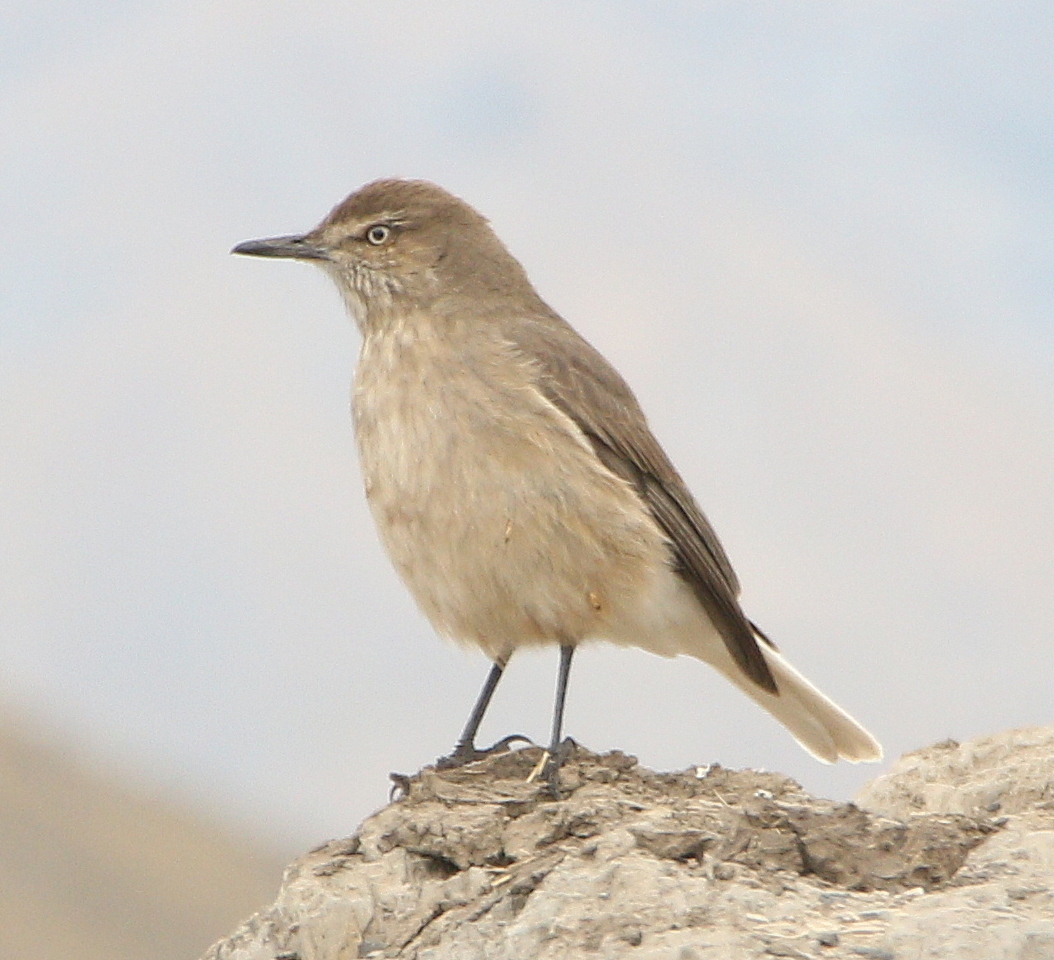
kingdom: Animalia
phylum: Chordata
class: Aves
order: Passeriformes
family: Tyrannidae
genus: Agriornis
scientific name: Agriornis montanus
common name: Black-billed shrike-tyrant
